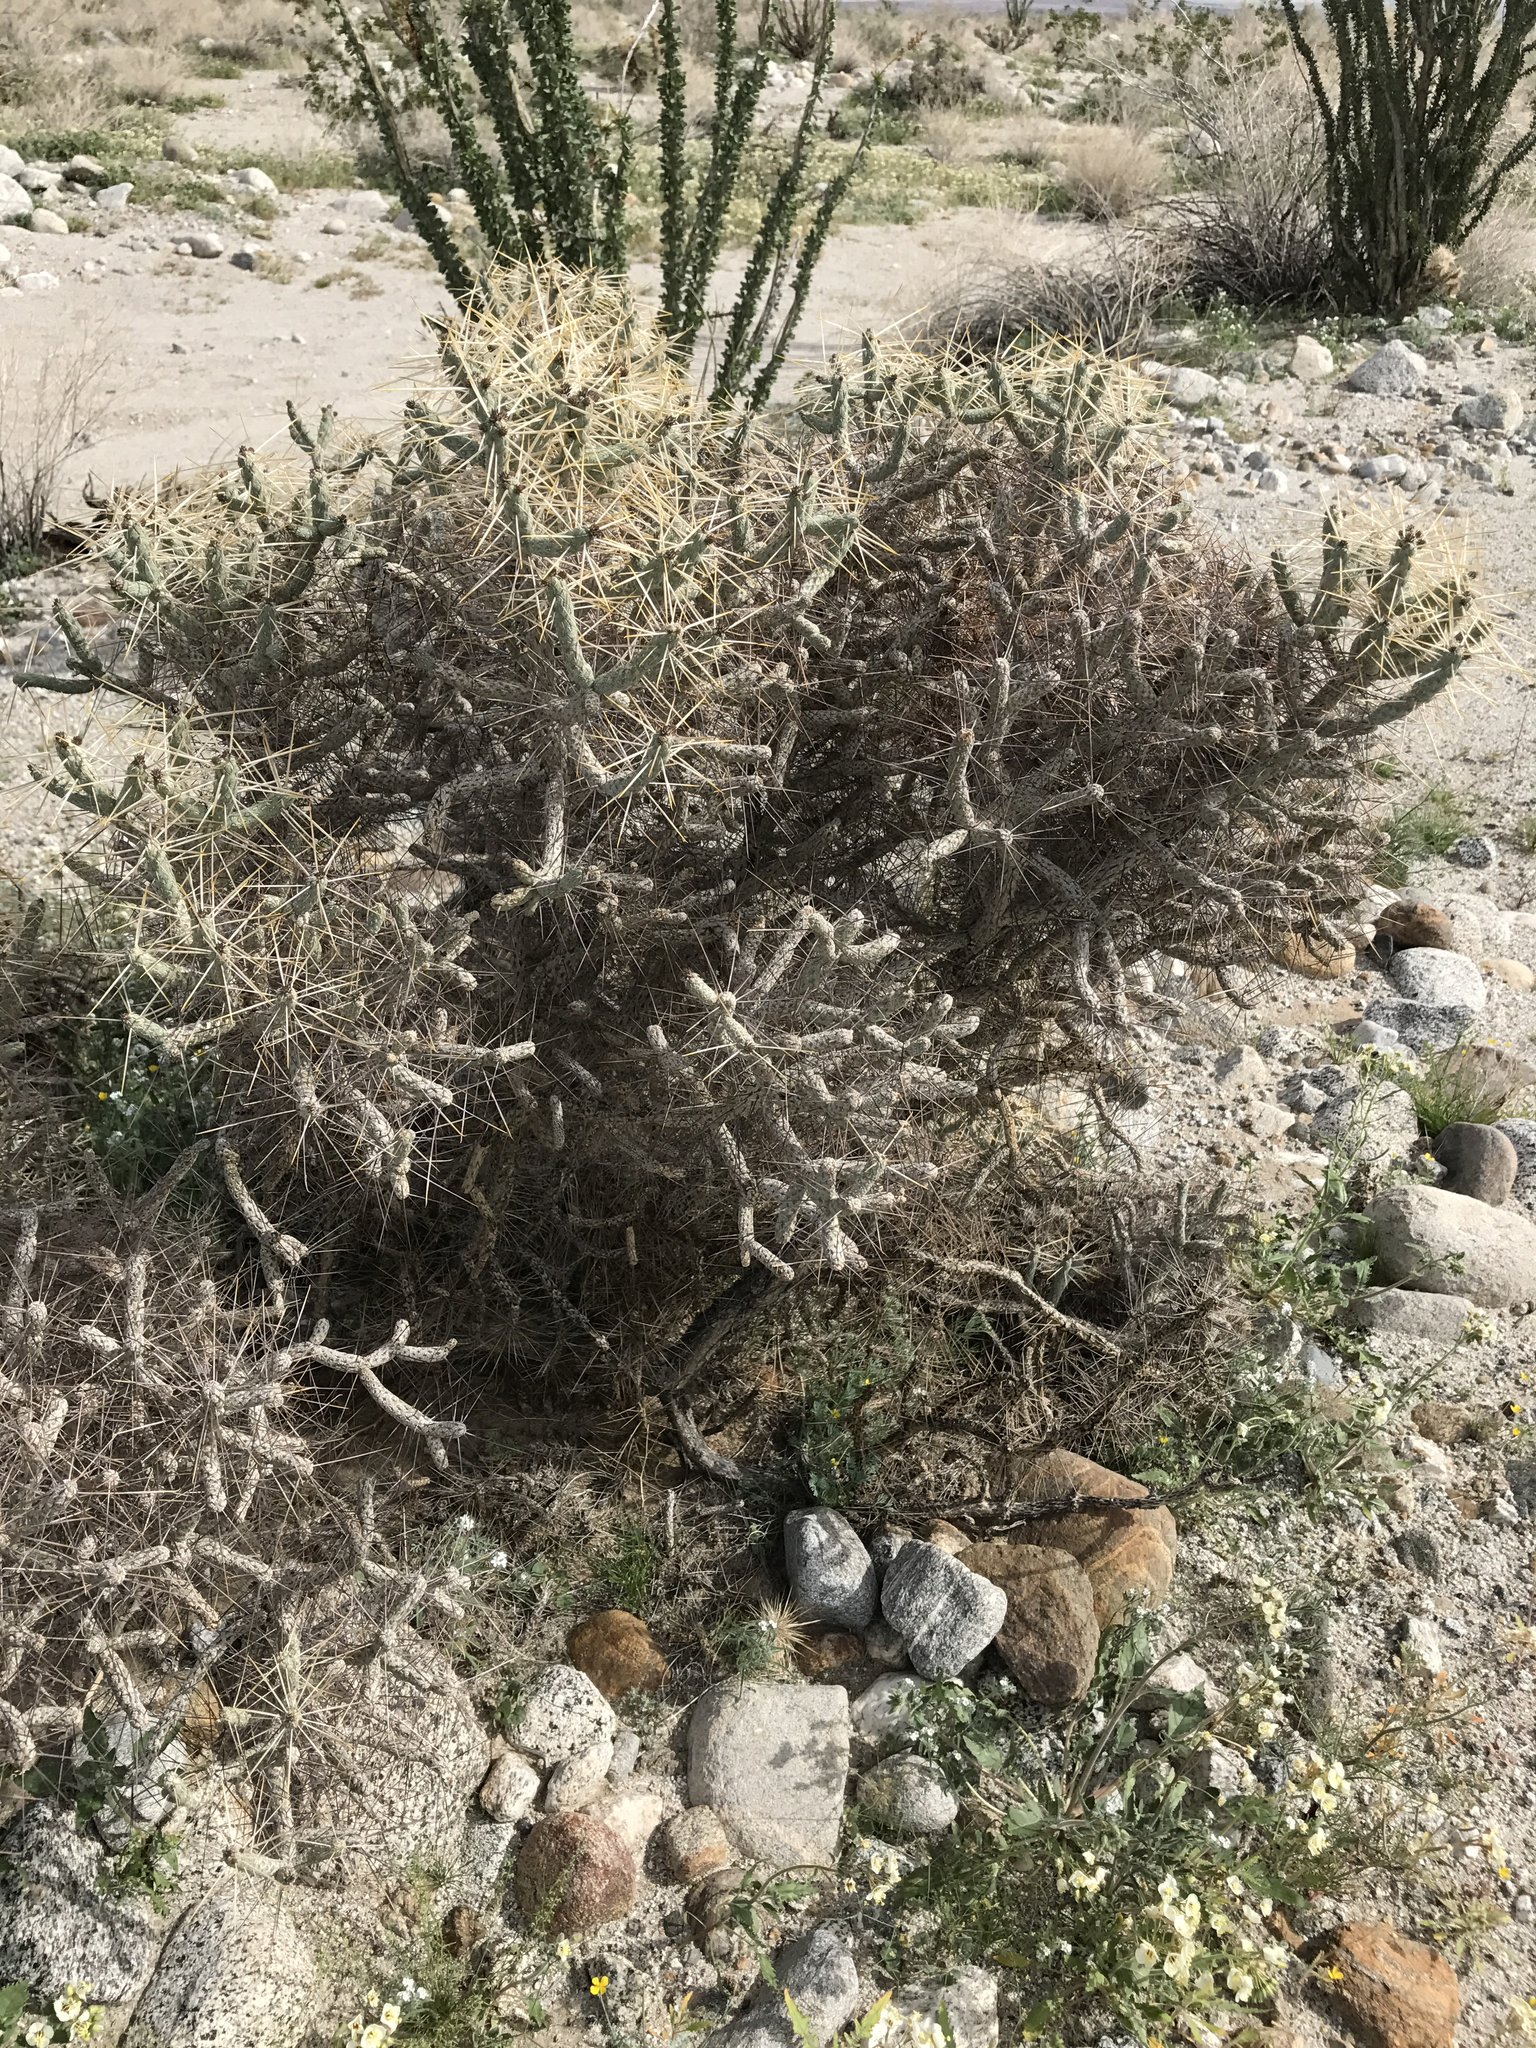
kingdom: Plantae
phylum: Tracheophyta
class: Magnoliopsida
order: Caryophyllales
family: Cactaceae
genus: Cylindropuntia
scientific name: Cylindropuntia ramosissima
